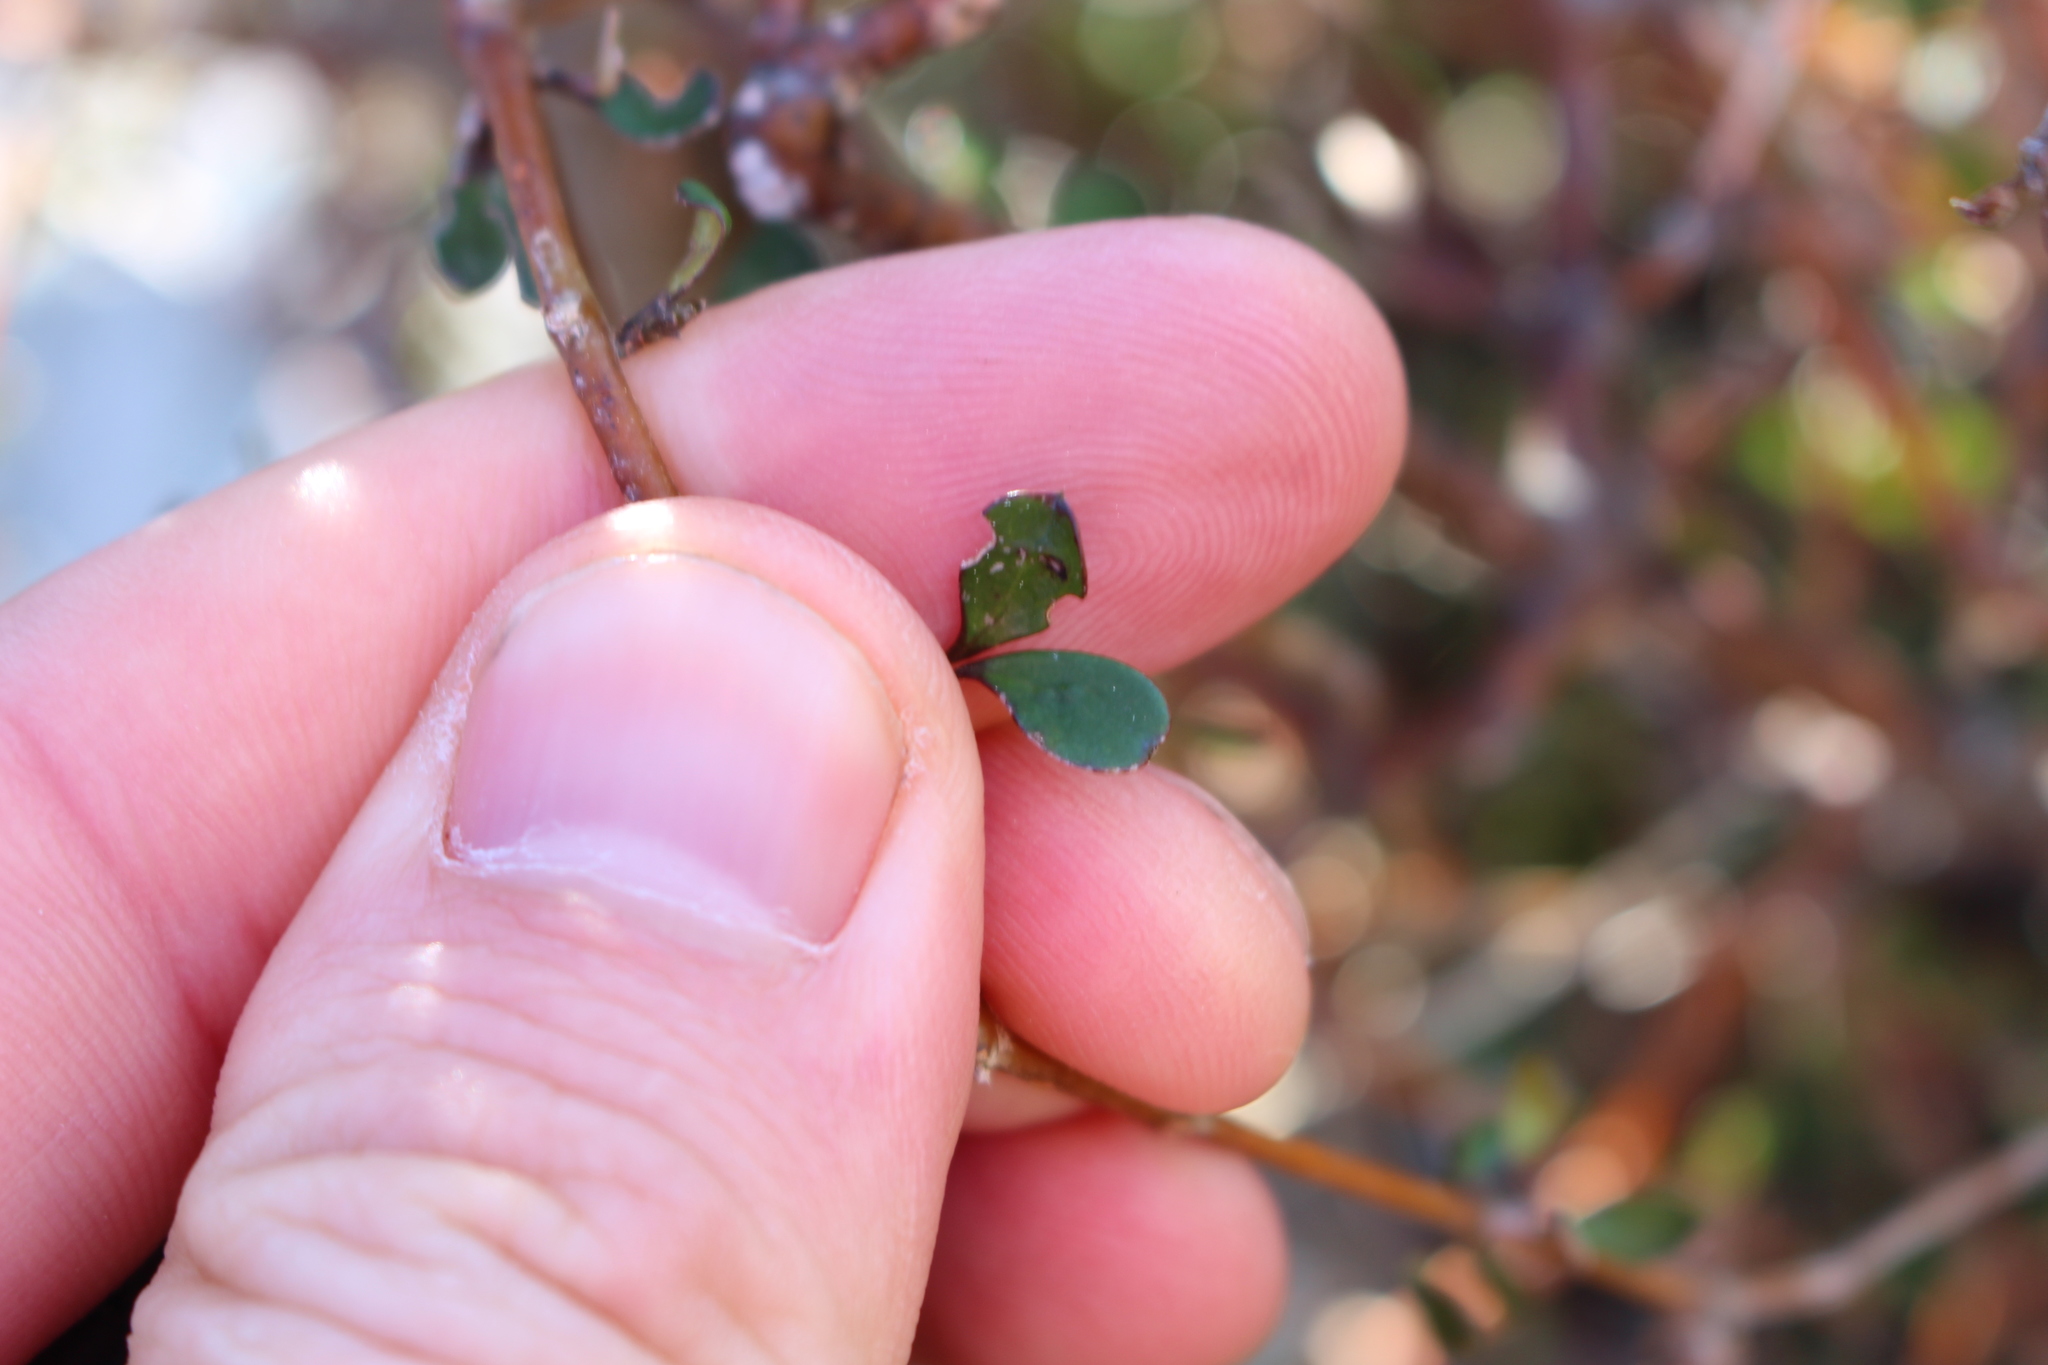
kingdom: Plantae
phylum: Tracheophyta
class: Magnoliopsida
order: Gentianales
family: Rubiaceae
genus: Coprosma
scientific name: Coprosma rigida
